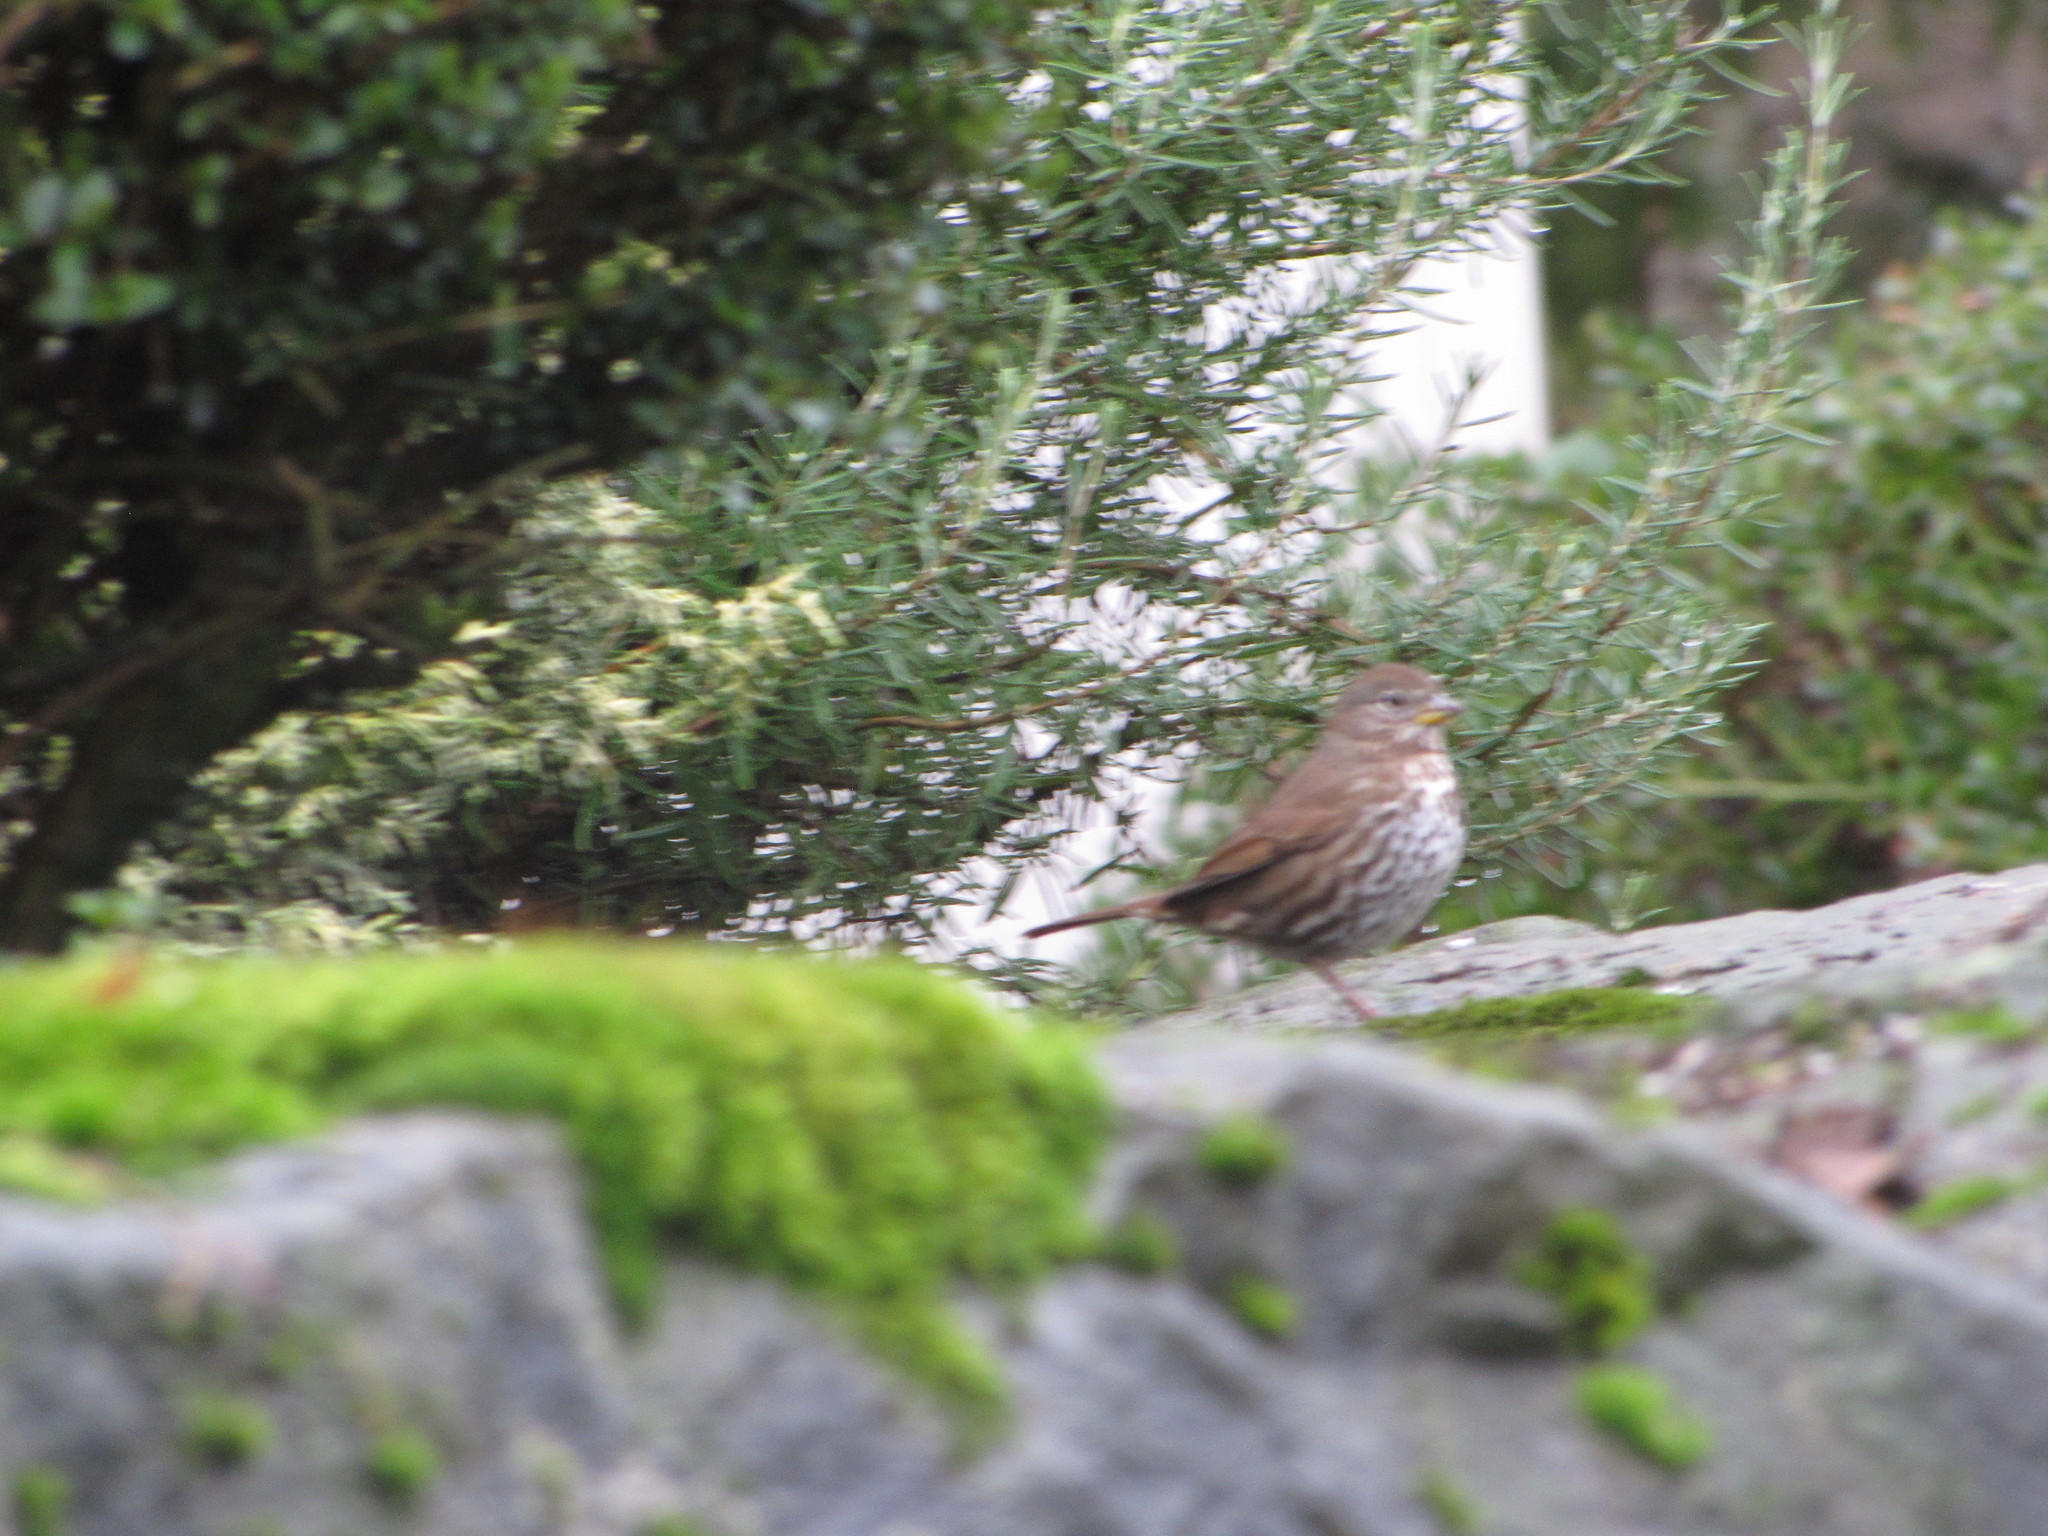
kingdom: Animalia
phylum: Chordata
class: Aves
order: Passeriformes
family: Passerellidae
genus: Passerella
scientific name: Passerella iliaca
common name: Fox sparrow
